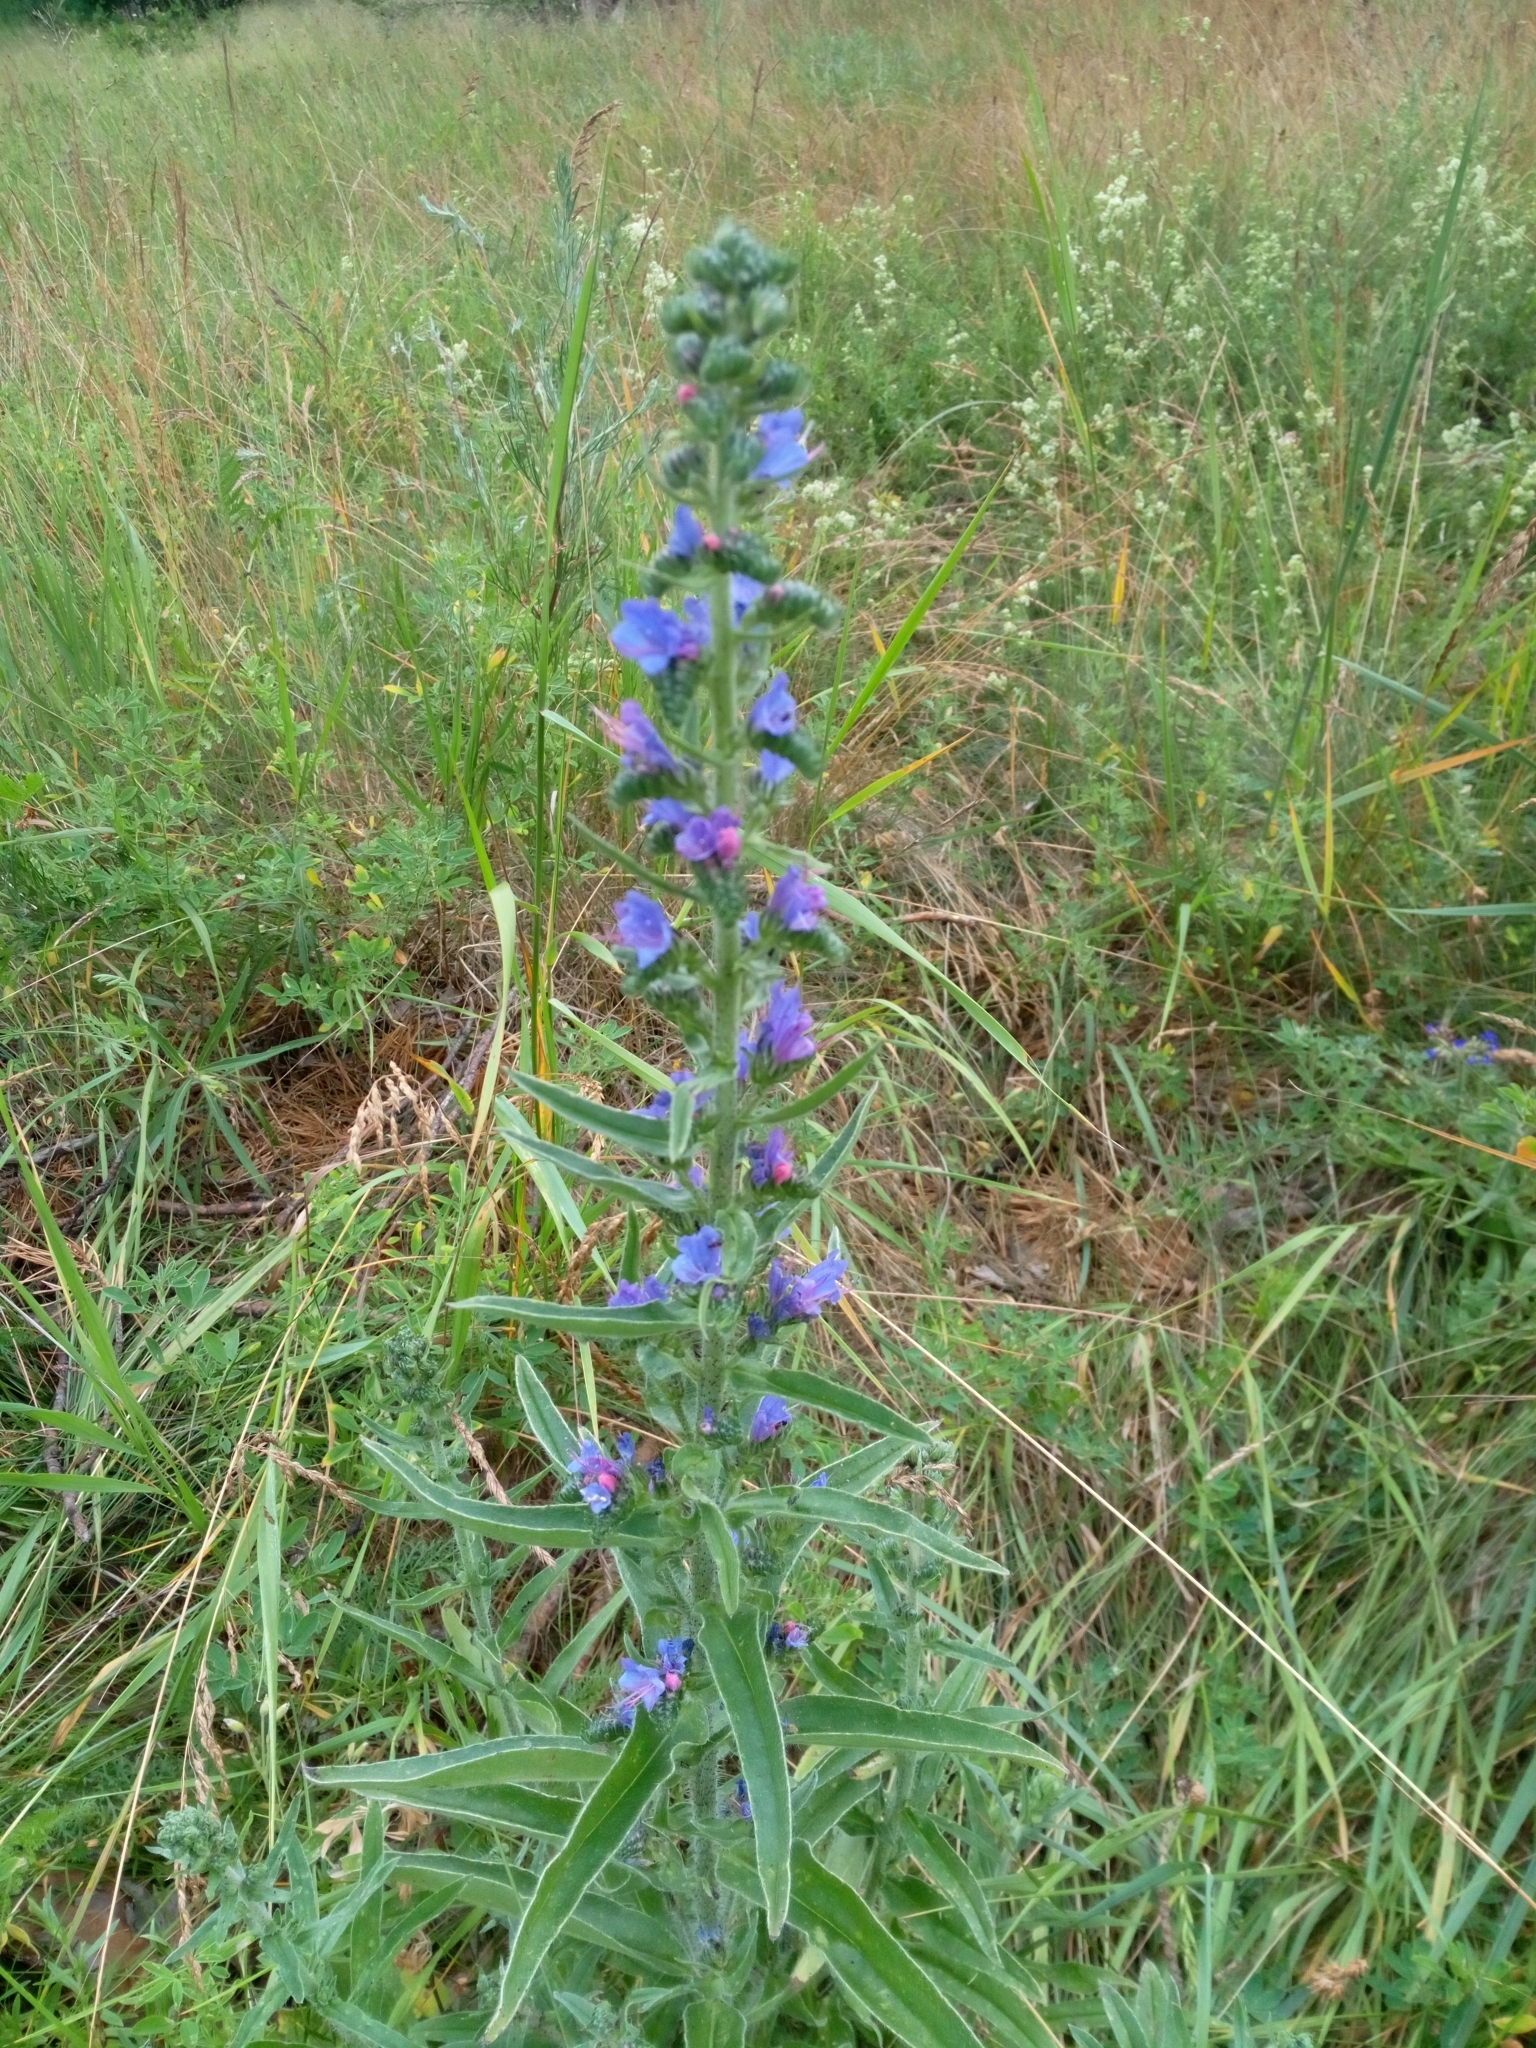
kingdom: Plantae
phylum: Tracheophyta
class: Magnoliopsida
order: Boraginales
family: Boraginaceae
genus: Echium
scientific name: Echium vulgare
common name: Common viper's bugloss
